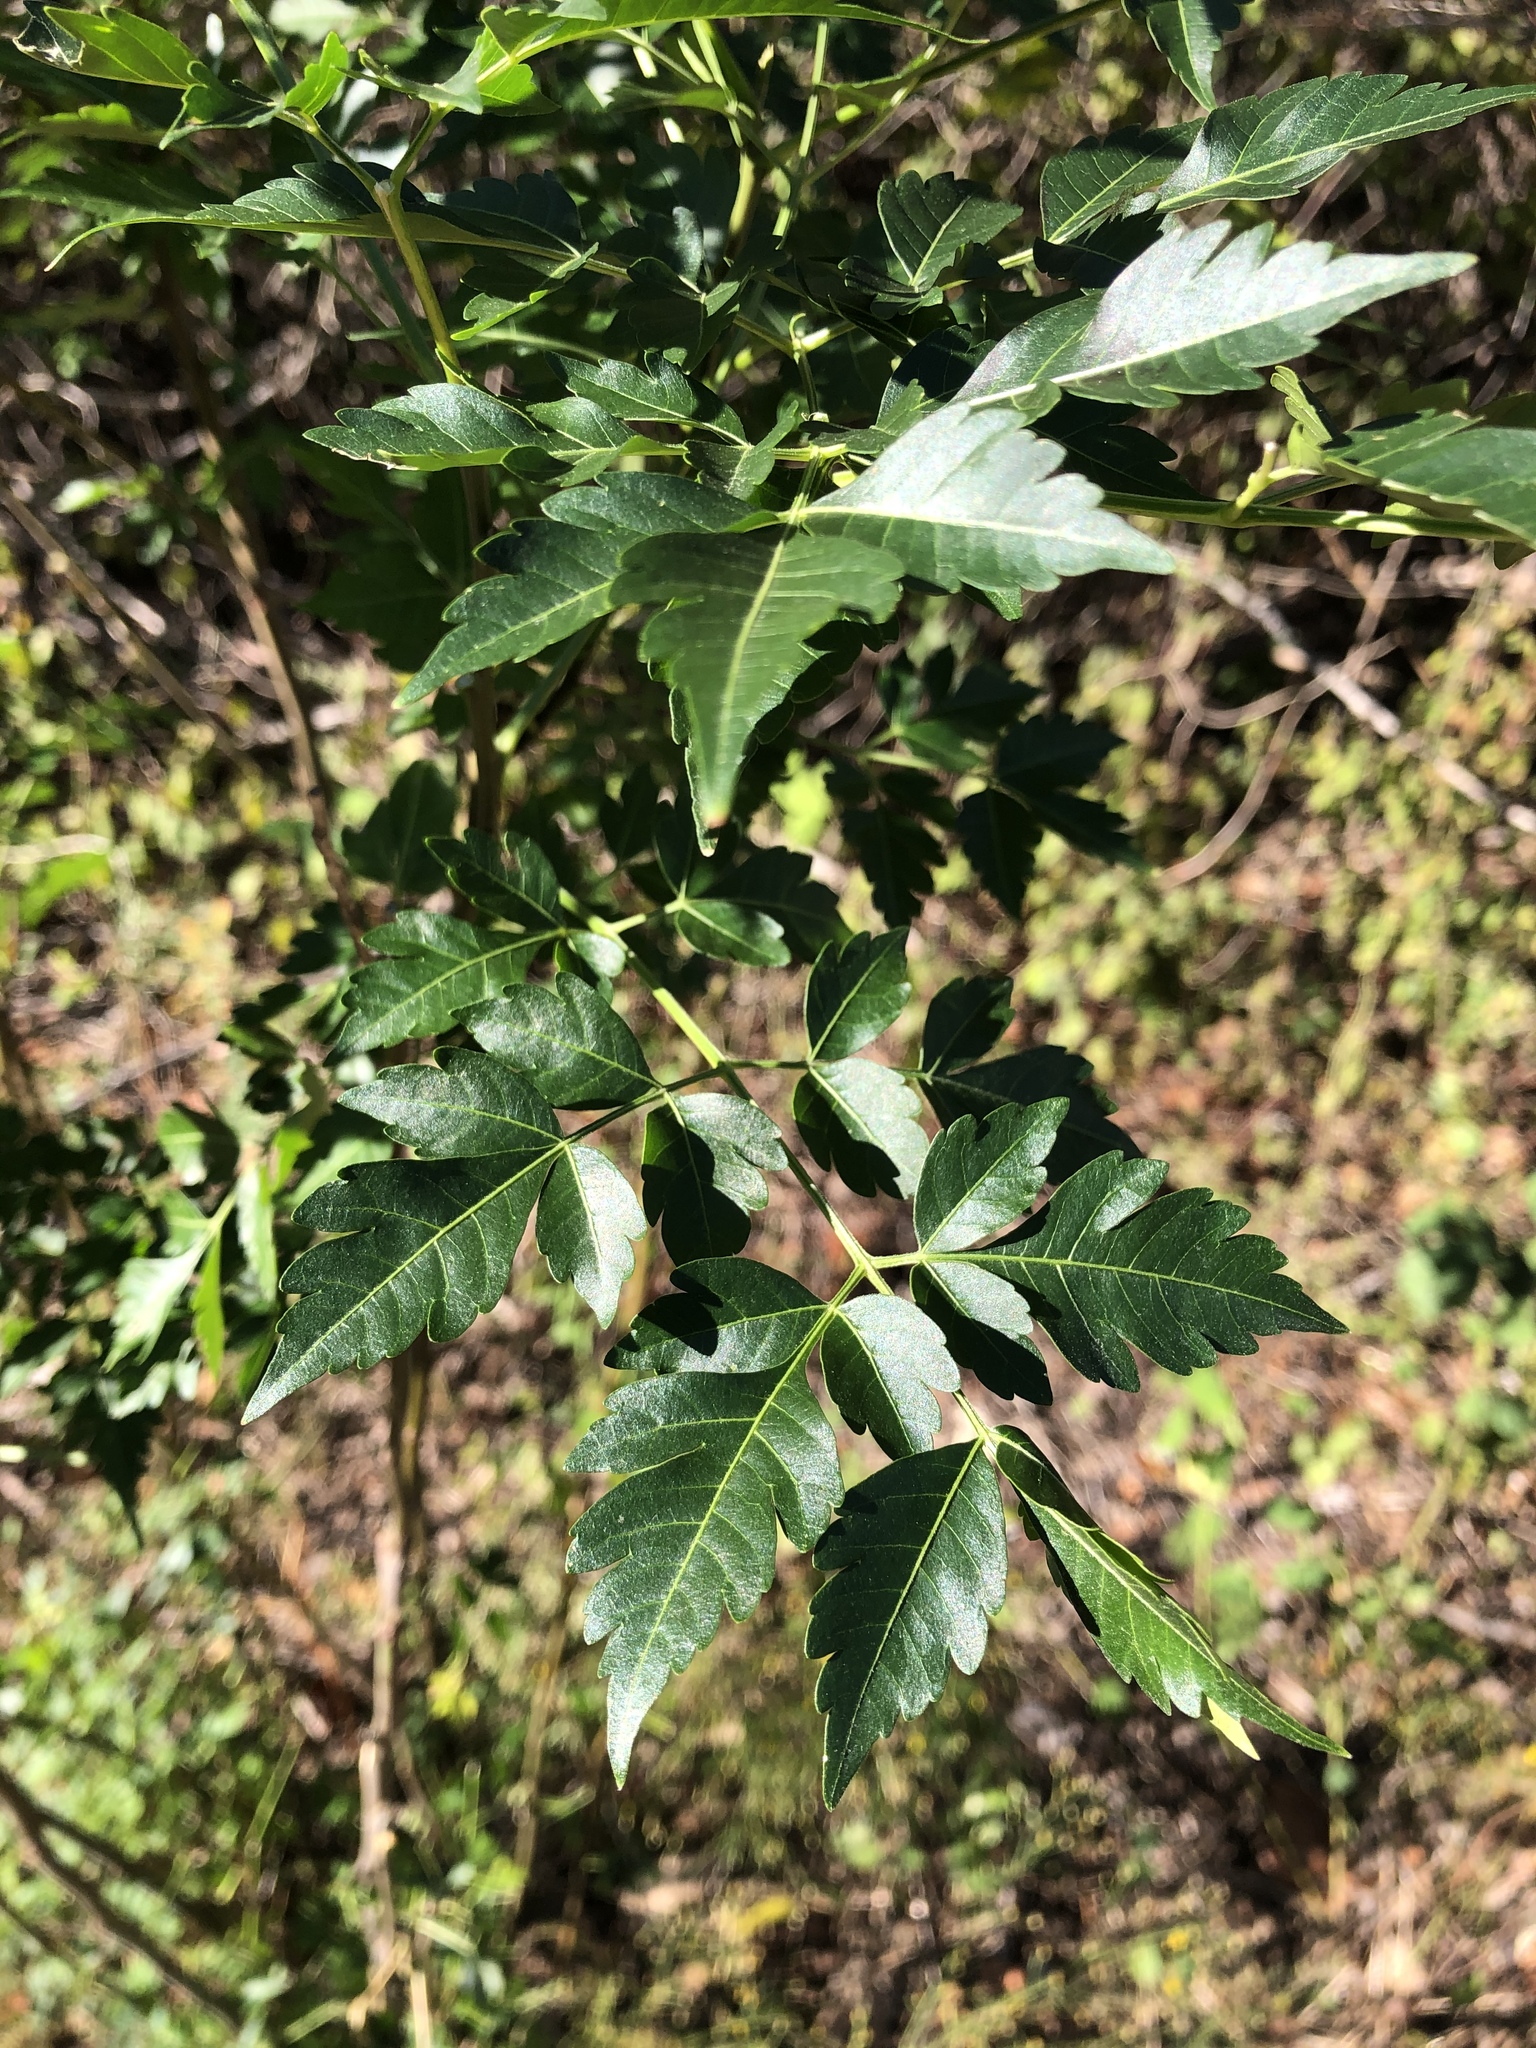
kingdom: Plantae
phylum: Tracheophyta
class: Magnoliopsida
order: Sapindales
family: Meliaceae
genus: Melia
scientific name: Melia azedarach
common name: Chinaberrytree
